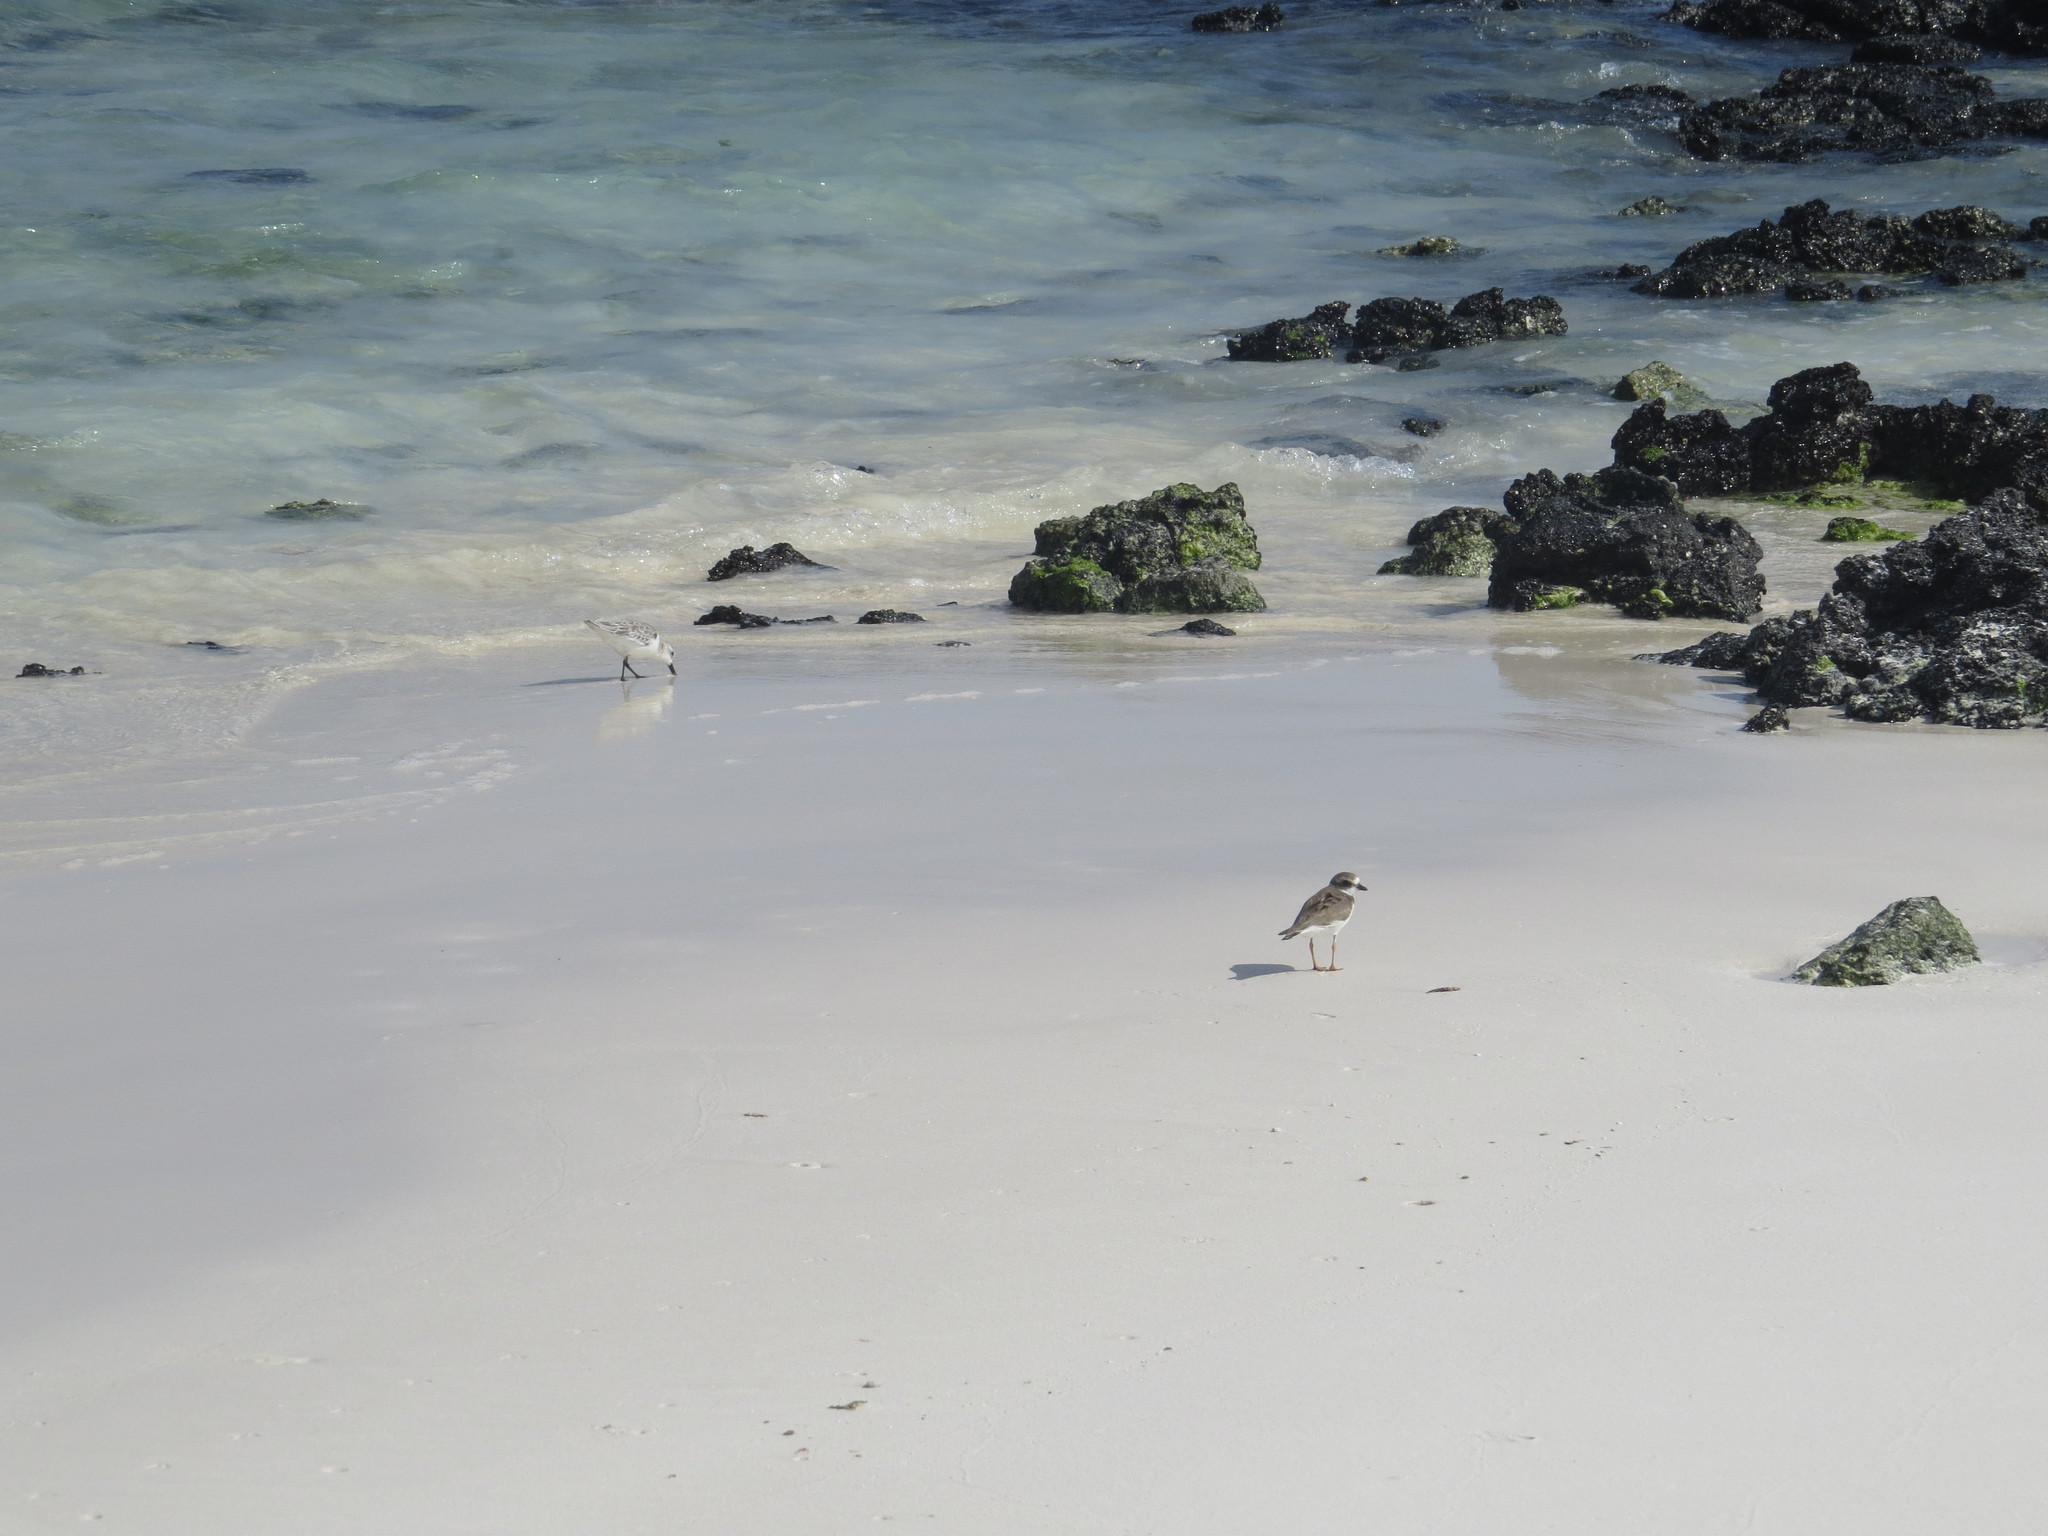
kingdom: Animalia
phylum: Chordata
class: Aves
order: Charadriiformes
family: Scolopacidae
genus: Calidris
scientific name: Calidris alba
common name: Sanderling
